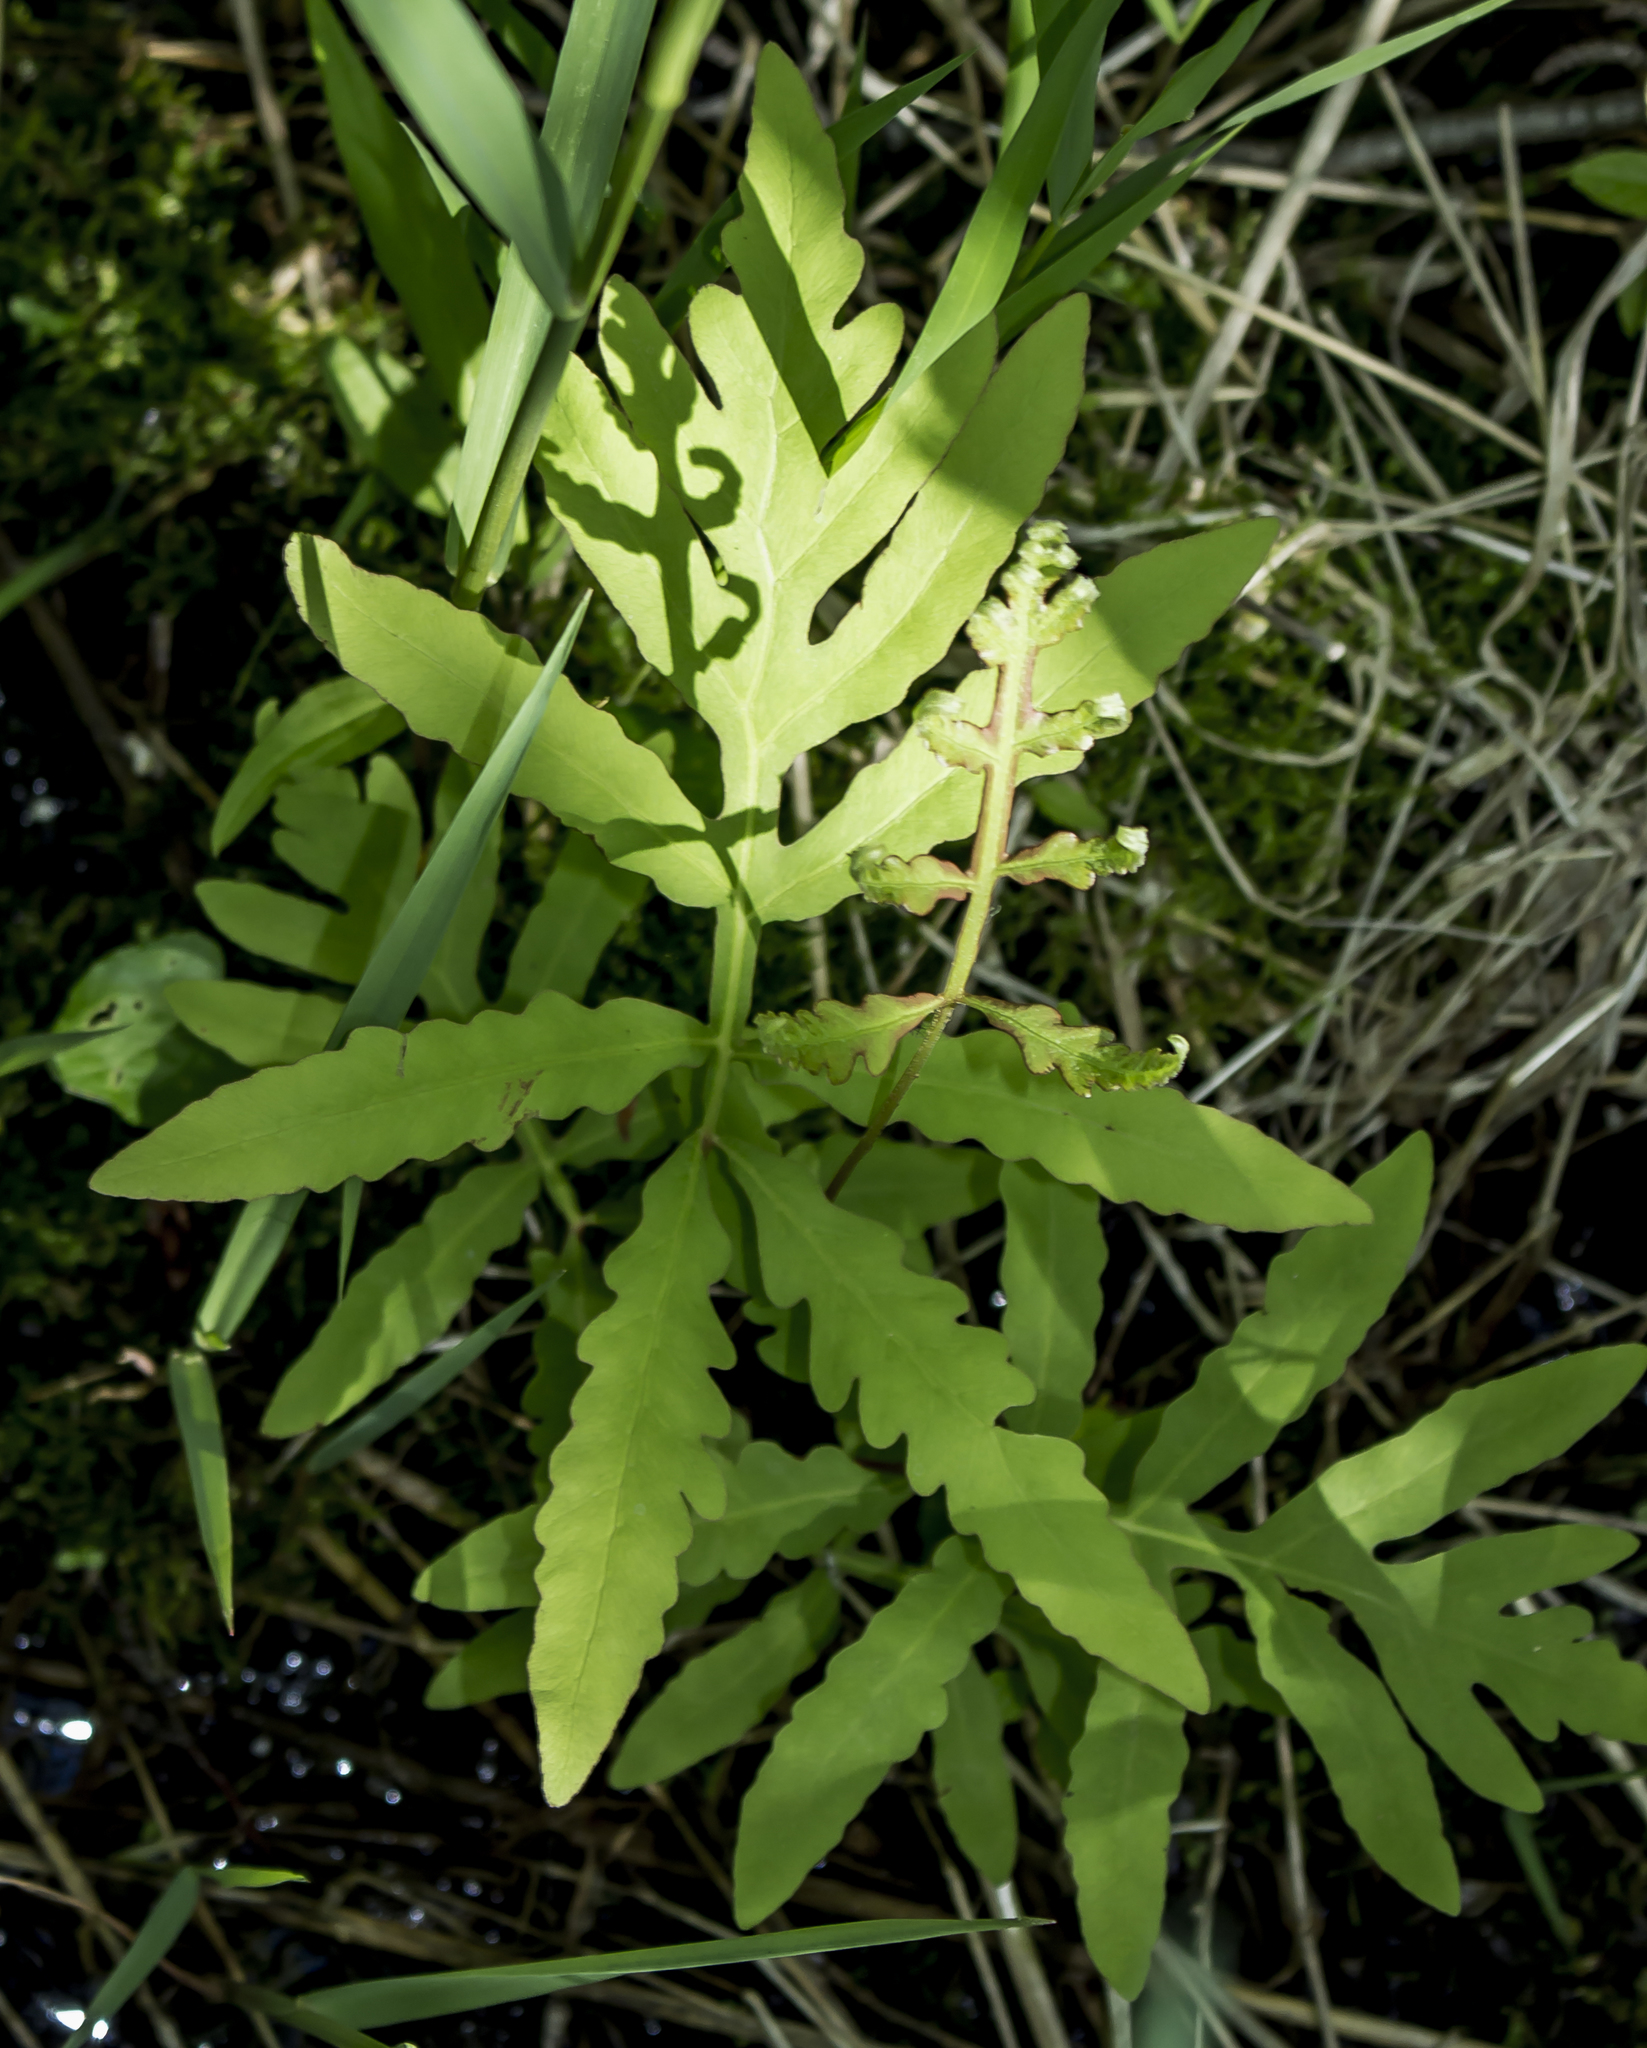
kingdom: Plantae
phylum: Tracheophyta
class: Polypodiopsida
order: Polypodiales
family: Onocleaceae
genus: Onoclea
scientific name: Onoclea sensibilis
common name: Sensitive fern
